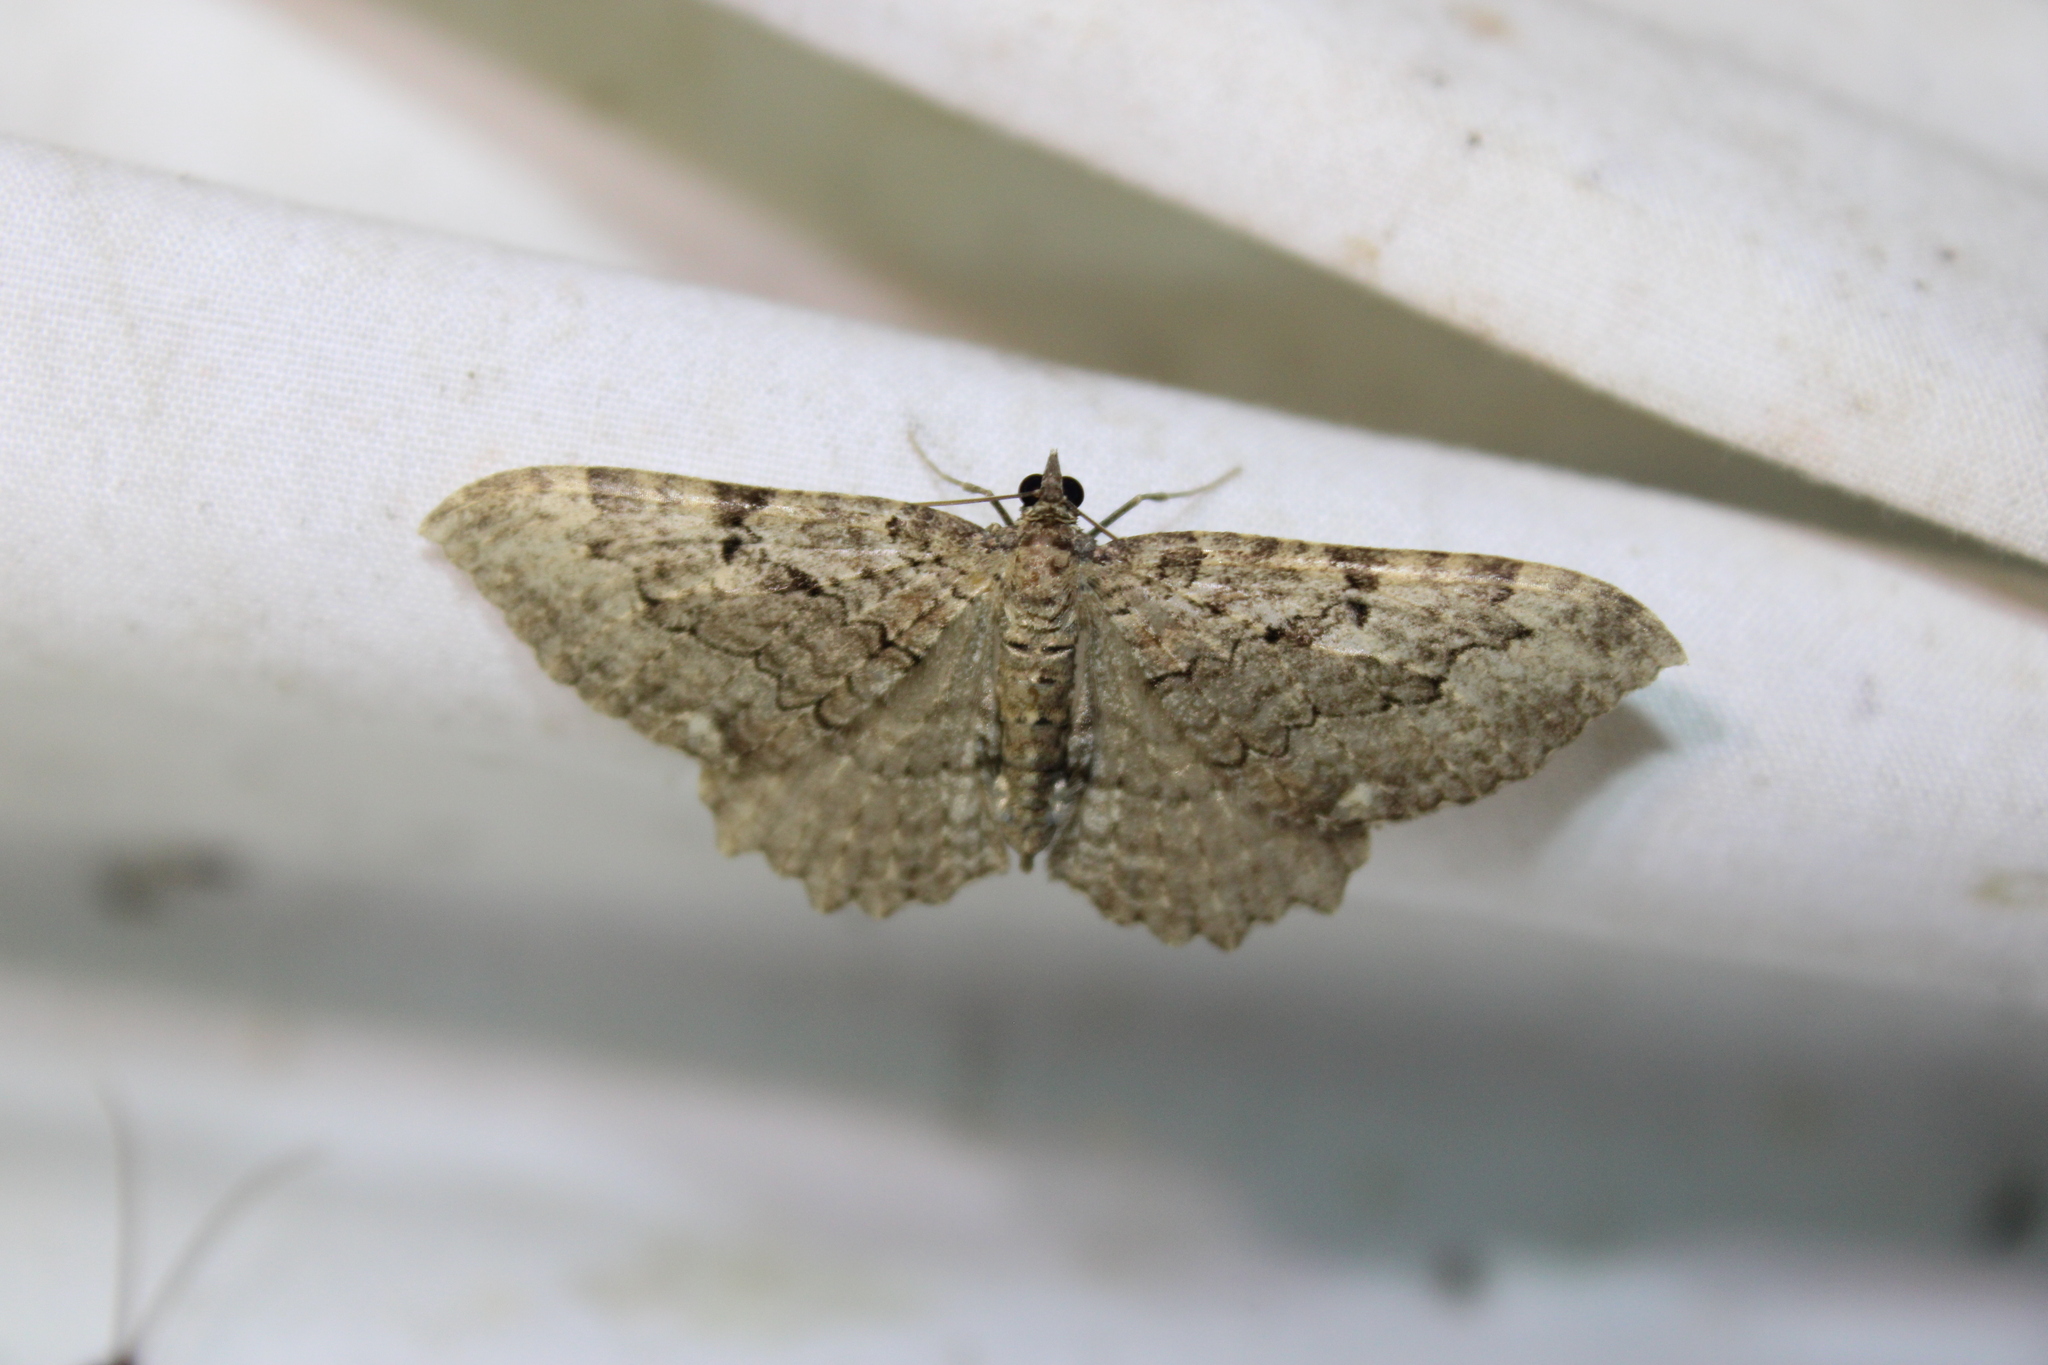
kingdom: Animalia
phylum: Arthropoda
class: Insecta
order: Lepidoptera
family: Geometridae
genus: Rheumaptera
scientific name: Rheumaptera
